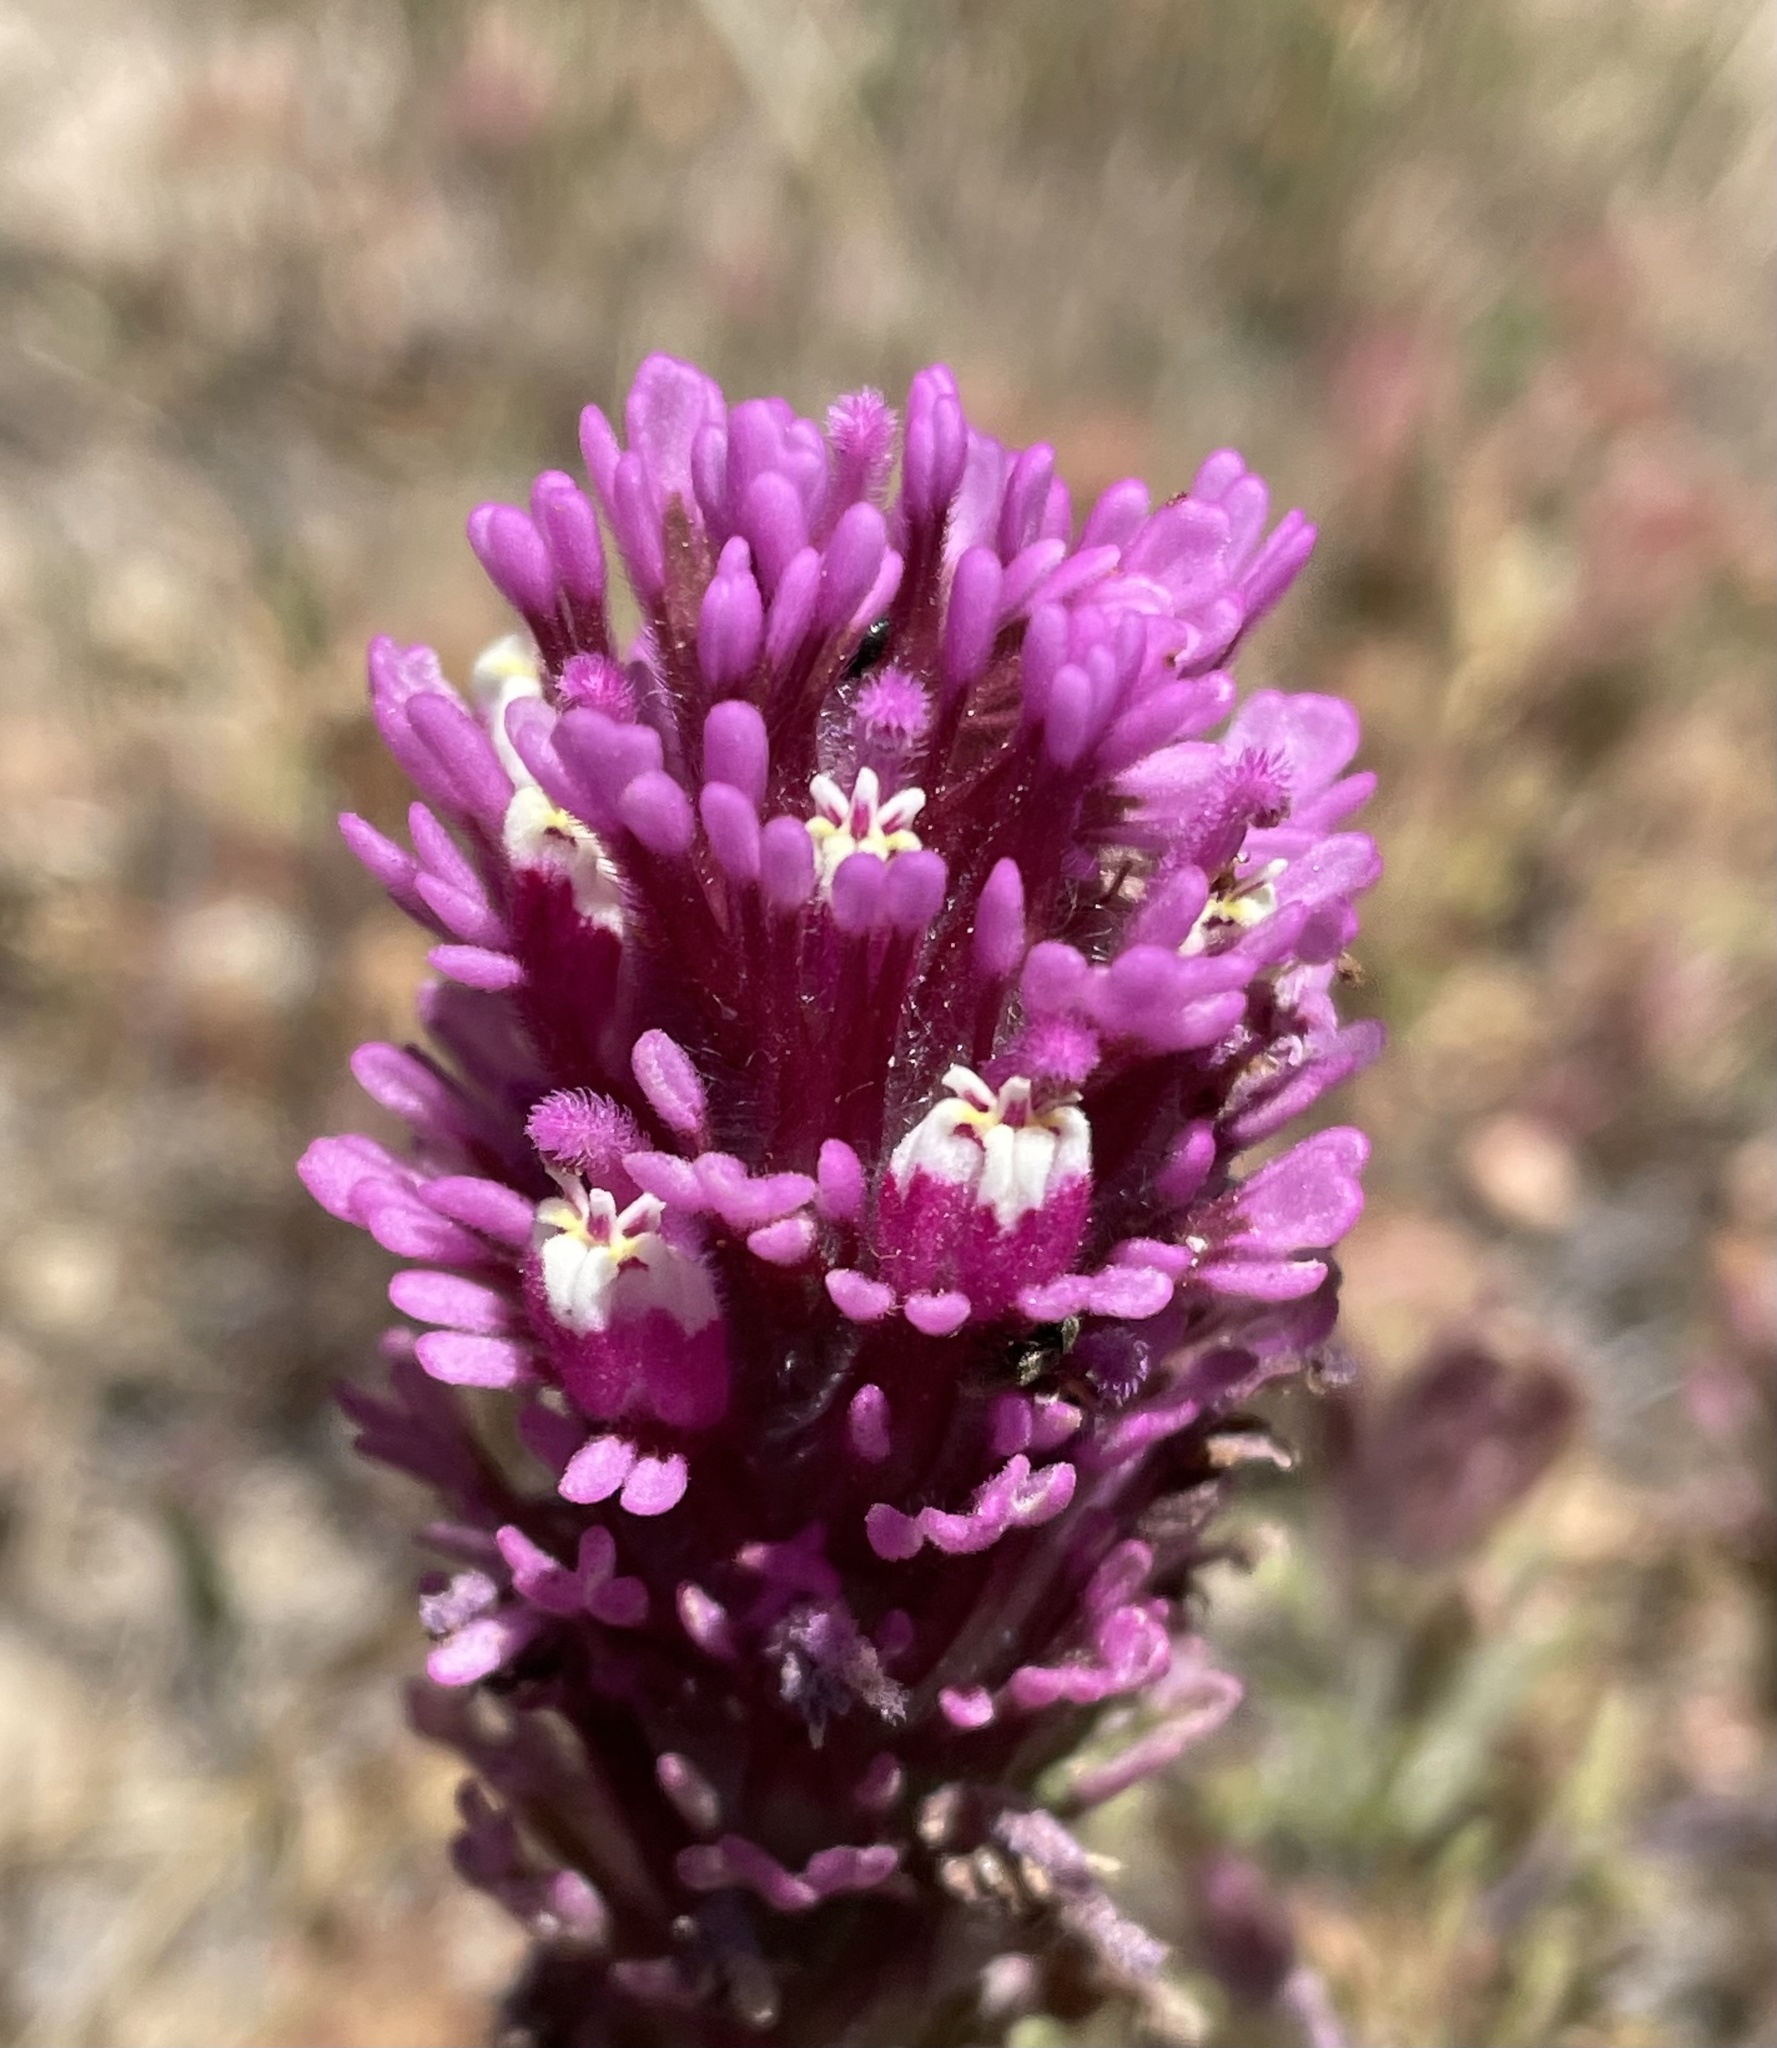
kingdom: Plantae
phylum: Tracheophyta
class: Magnoliopsida
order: Lamiales
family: Orobanchaceae
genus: Castilleja
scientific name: Castilleja exserta
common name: Purple owl-clover
